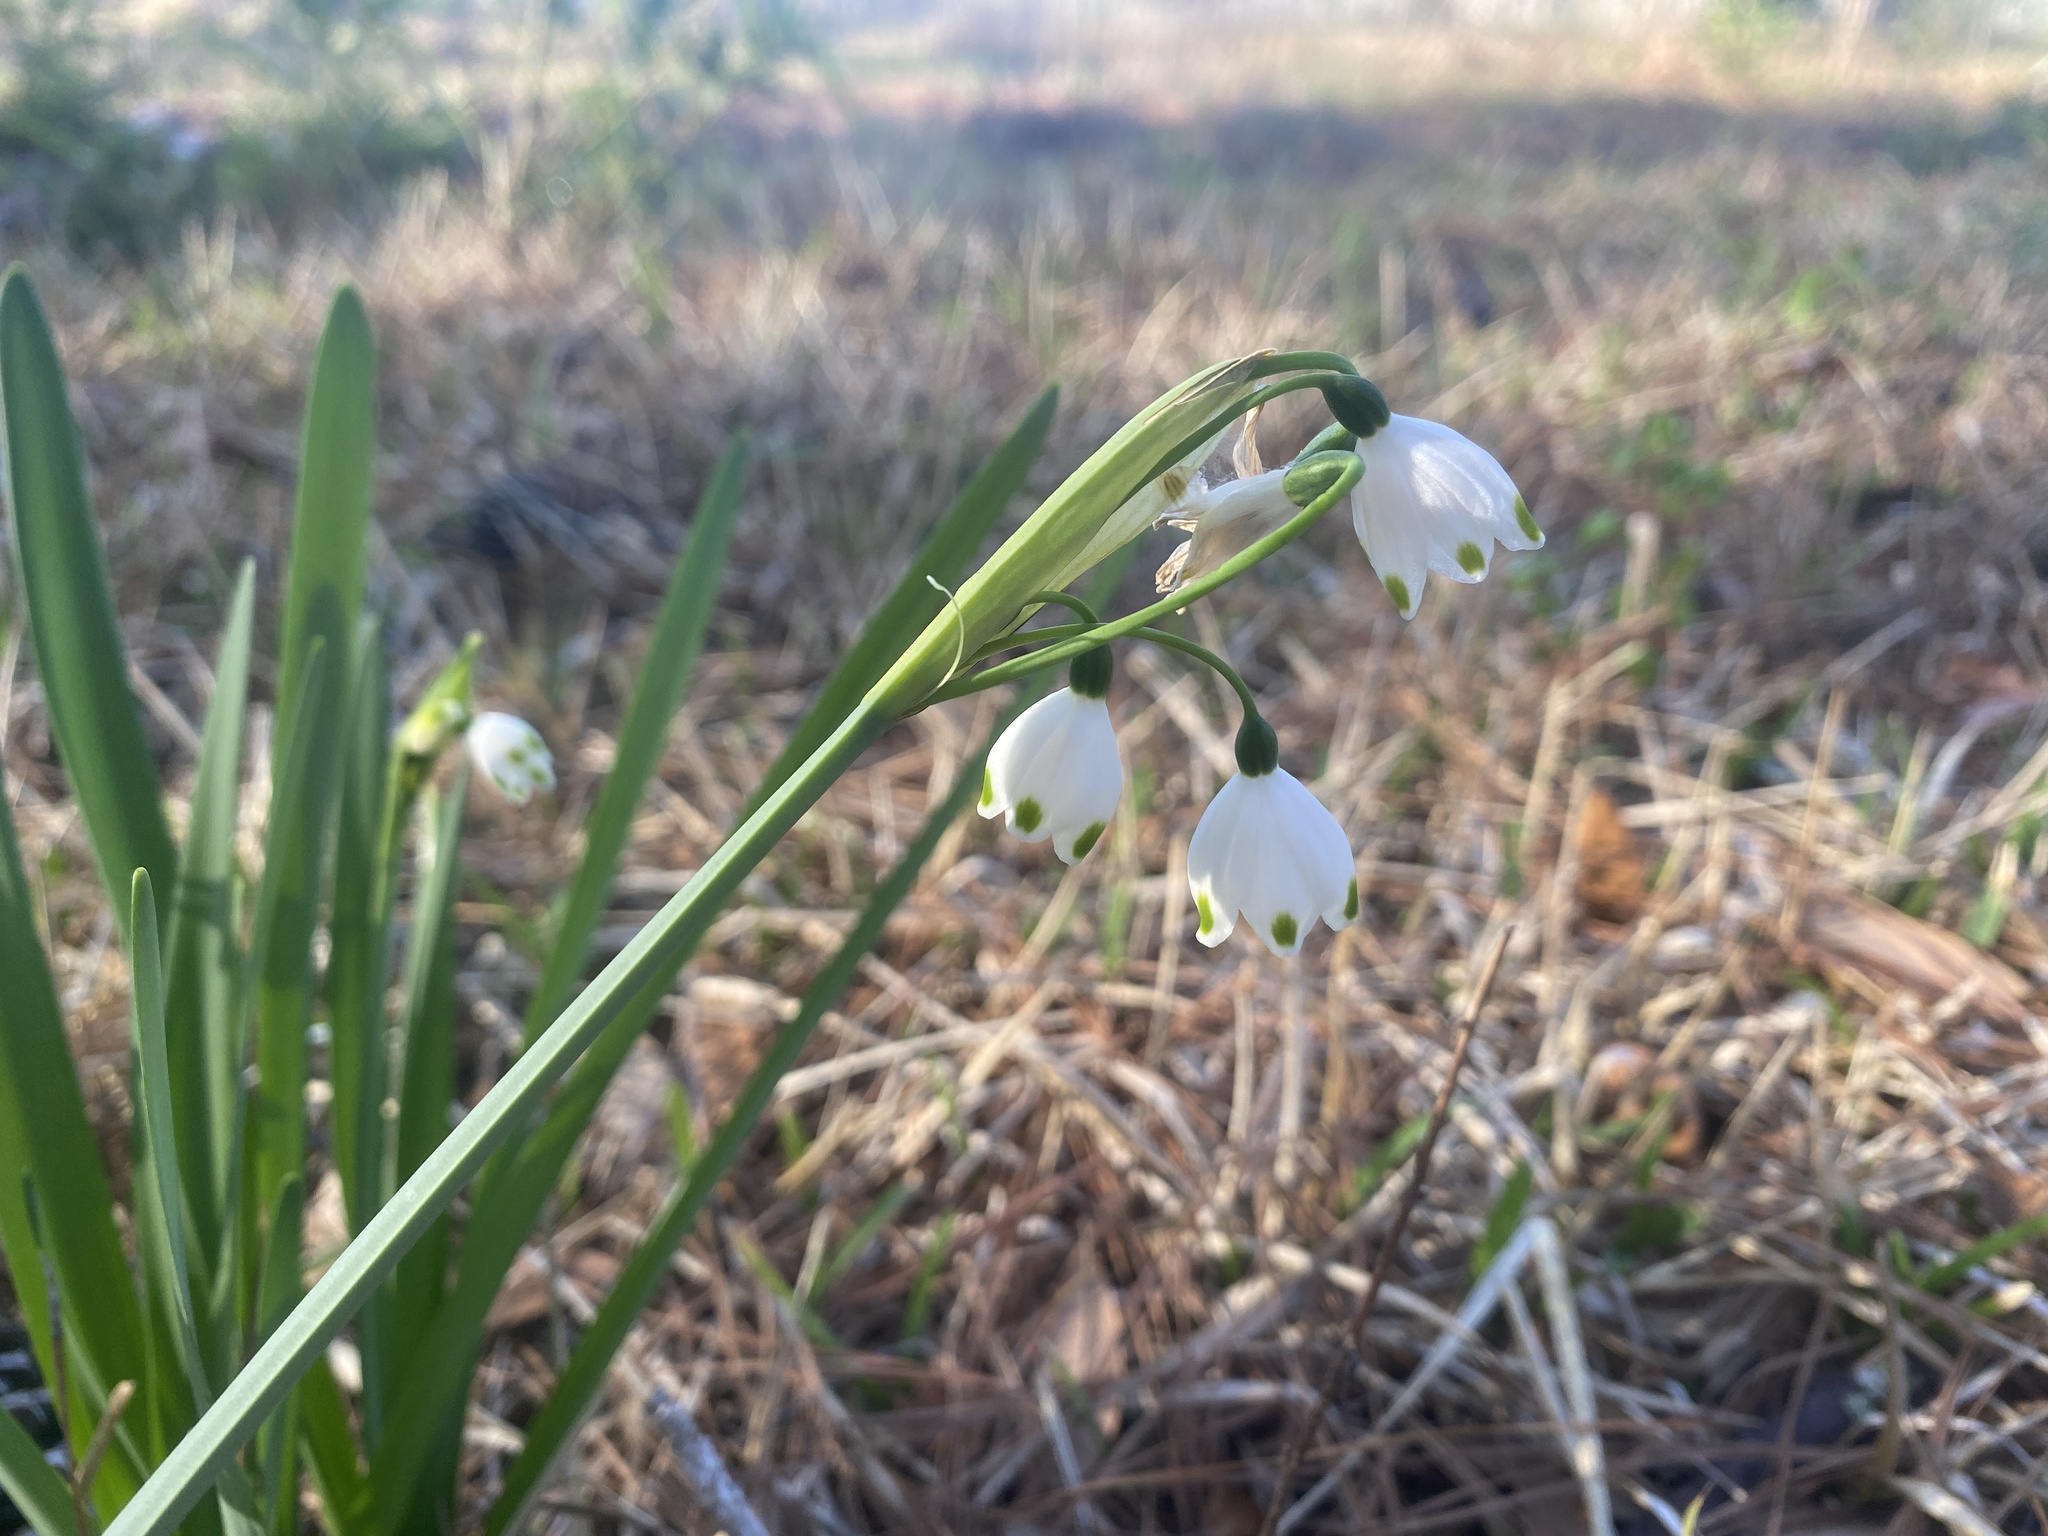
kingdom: Plantae
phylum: Tracheophyta
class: Liliopsida
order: Asparagales
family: Amaryllidaceae
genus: Leucojum
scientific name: Leucojum aestivum
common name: Summer snowflake
